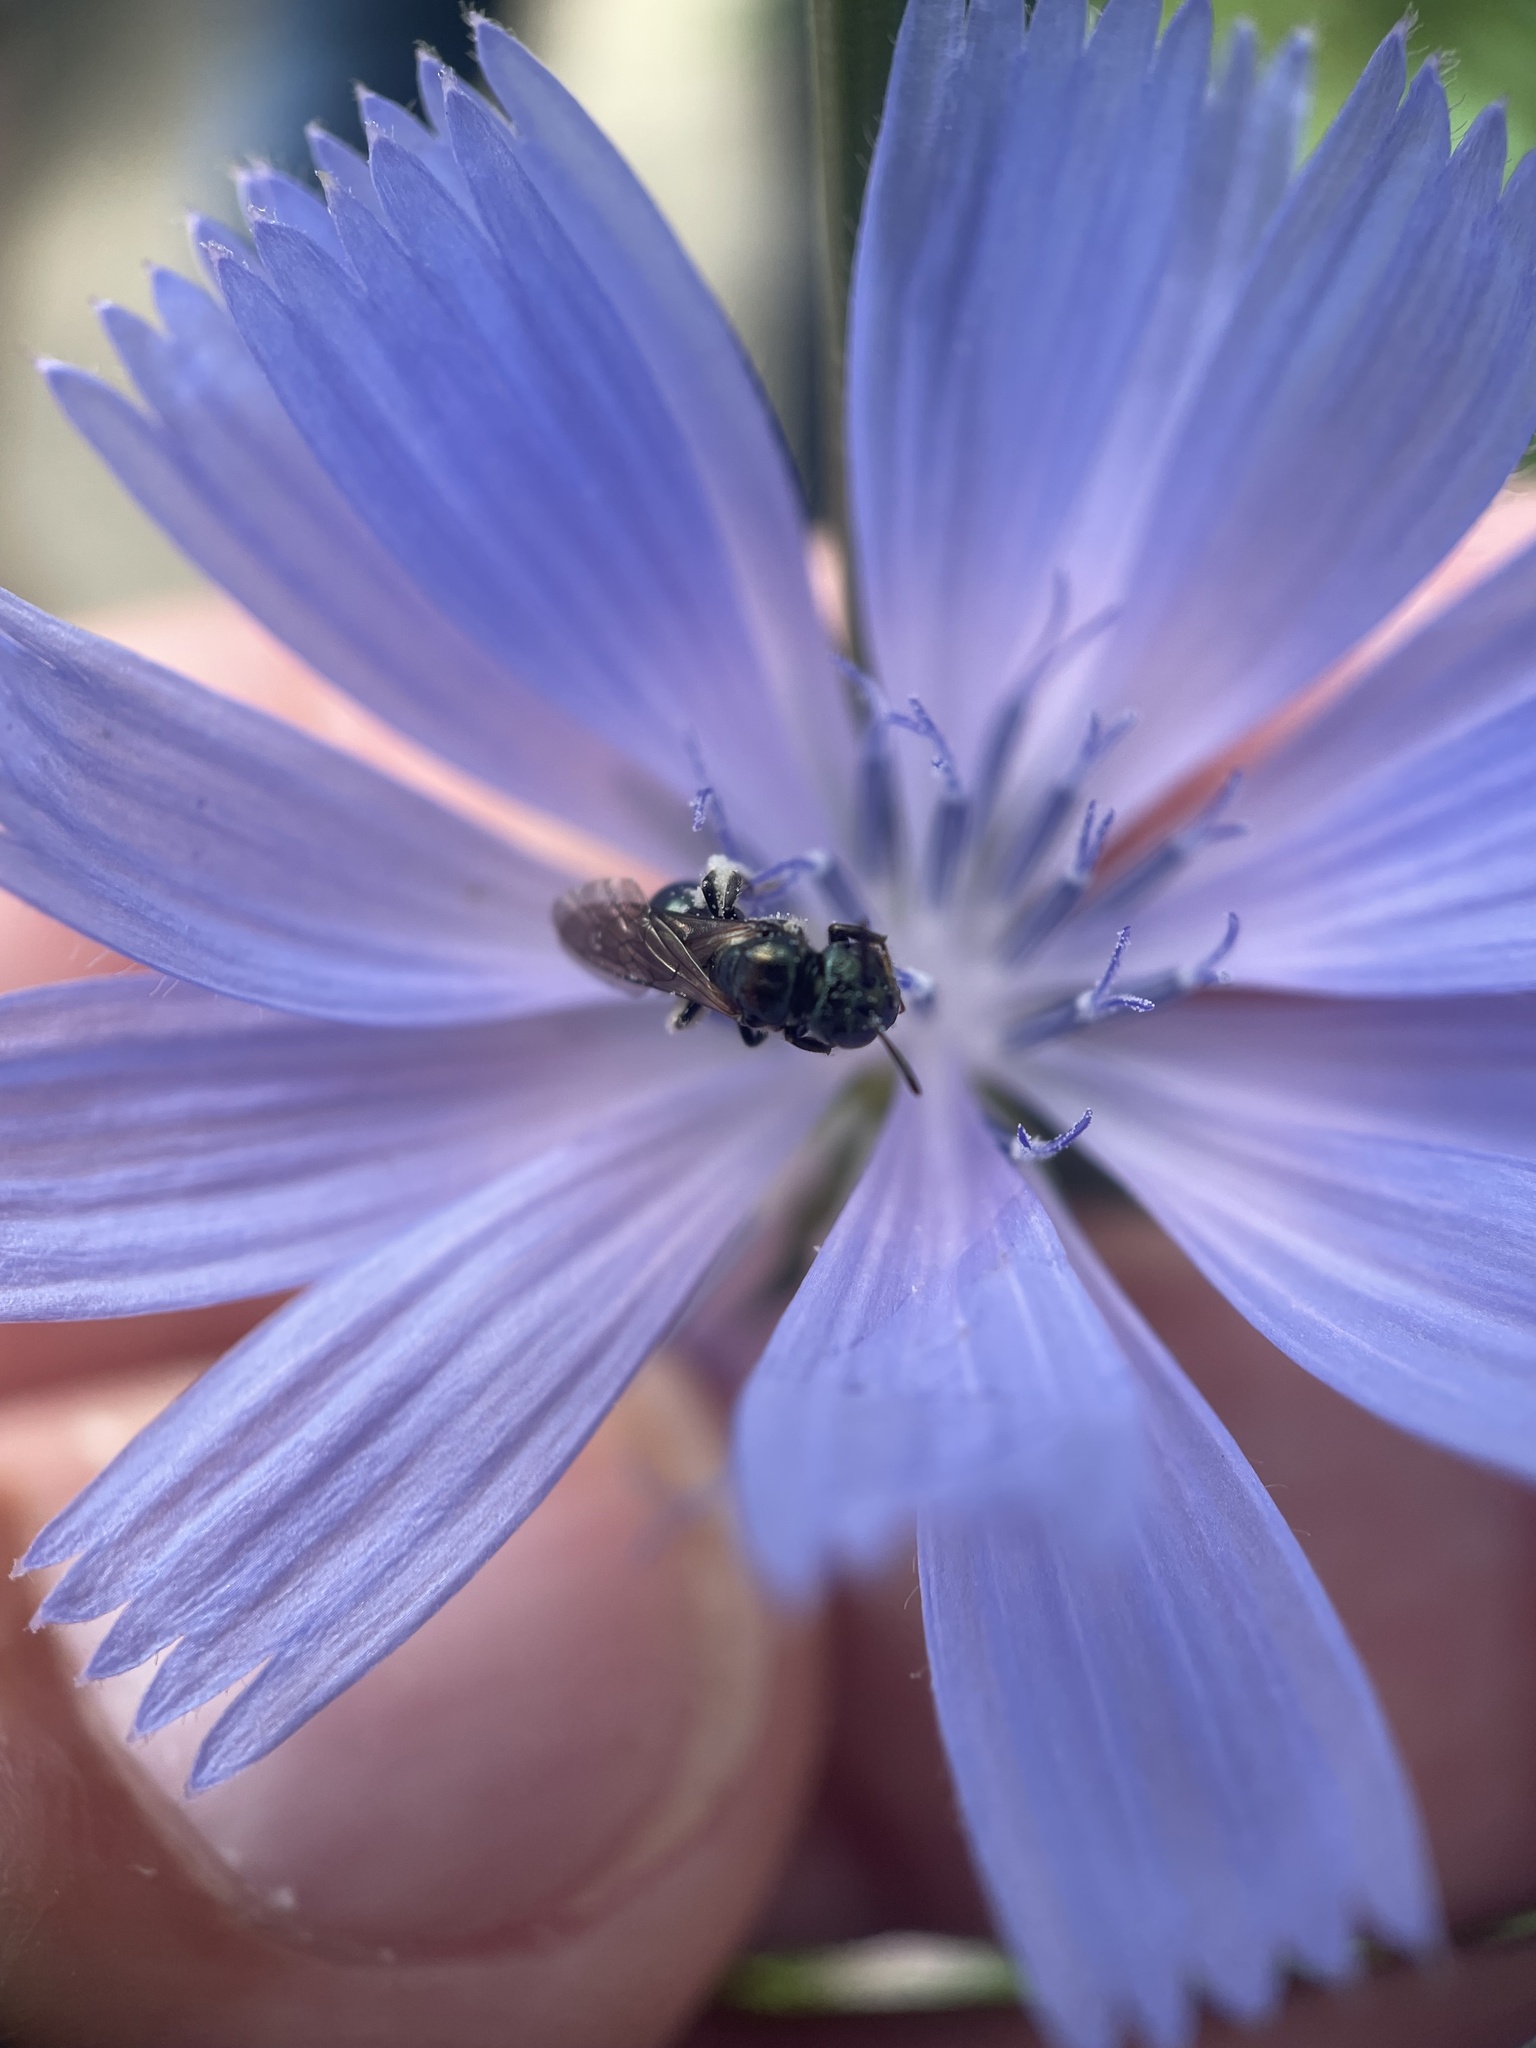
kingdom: Animalia
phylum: Arthropoda
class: Insecta
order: Hymenoptera
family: Apidae
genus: Ceratina
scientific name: Ceratina calcarata
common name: Spurred carpenter bee
